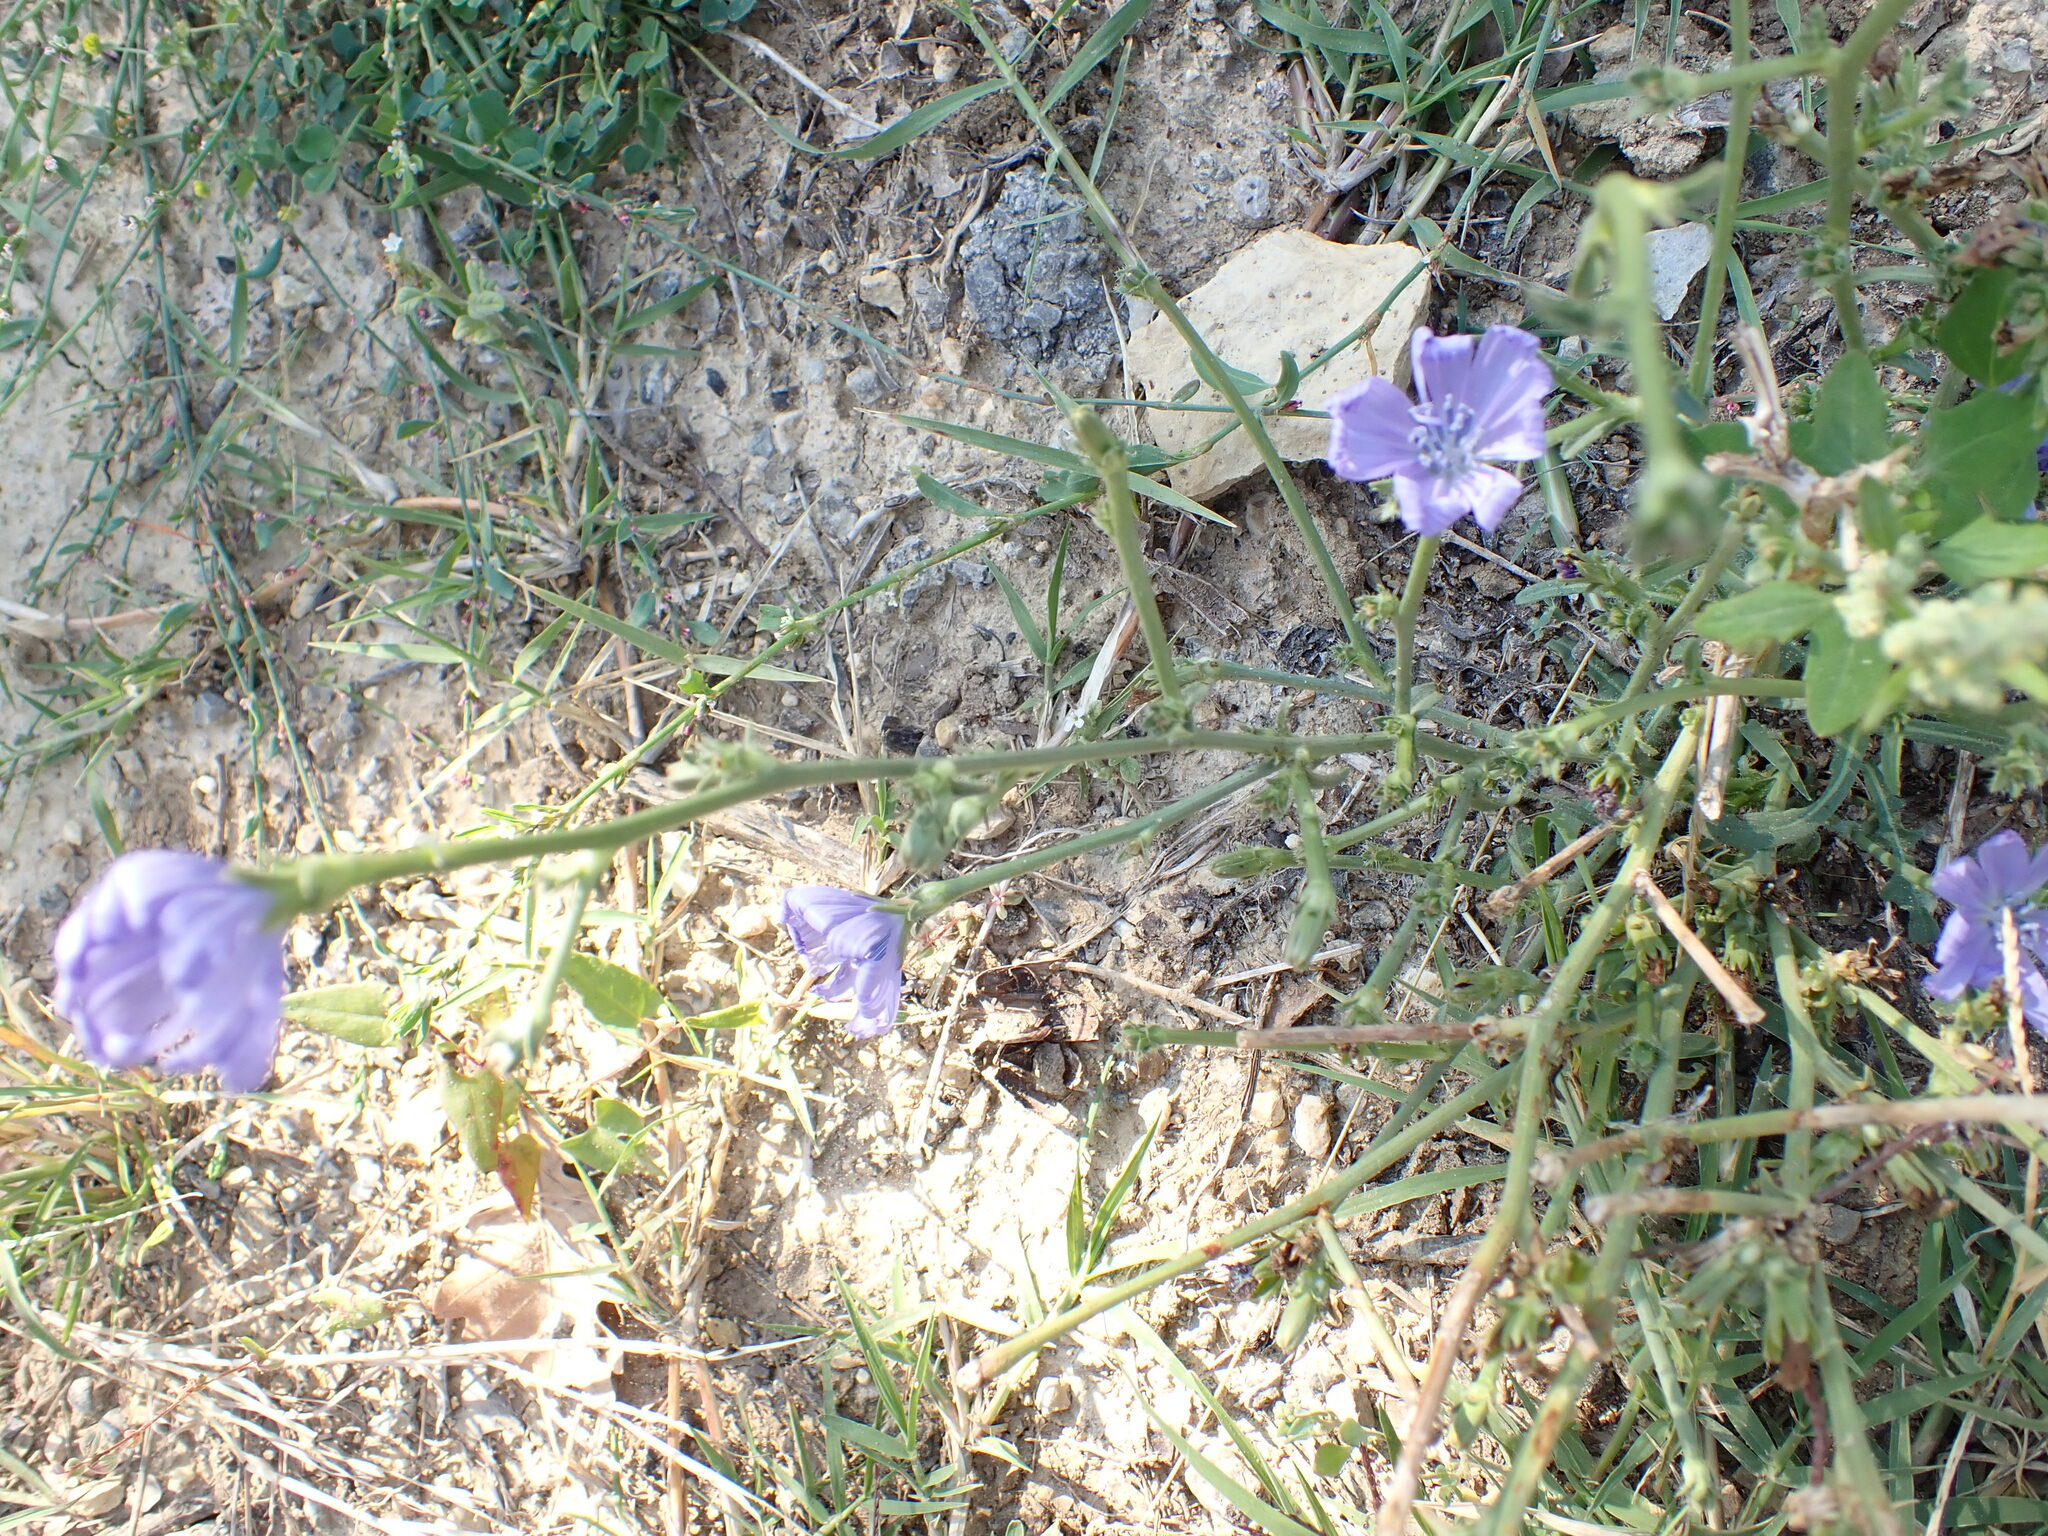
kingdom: Plantae
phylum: Tracheophyta
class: Magnoliopsida
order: Asterales
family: Asteraceae
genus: Cichorium
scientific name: Cichorium intybus
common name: Chicory
